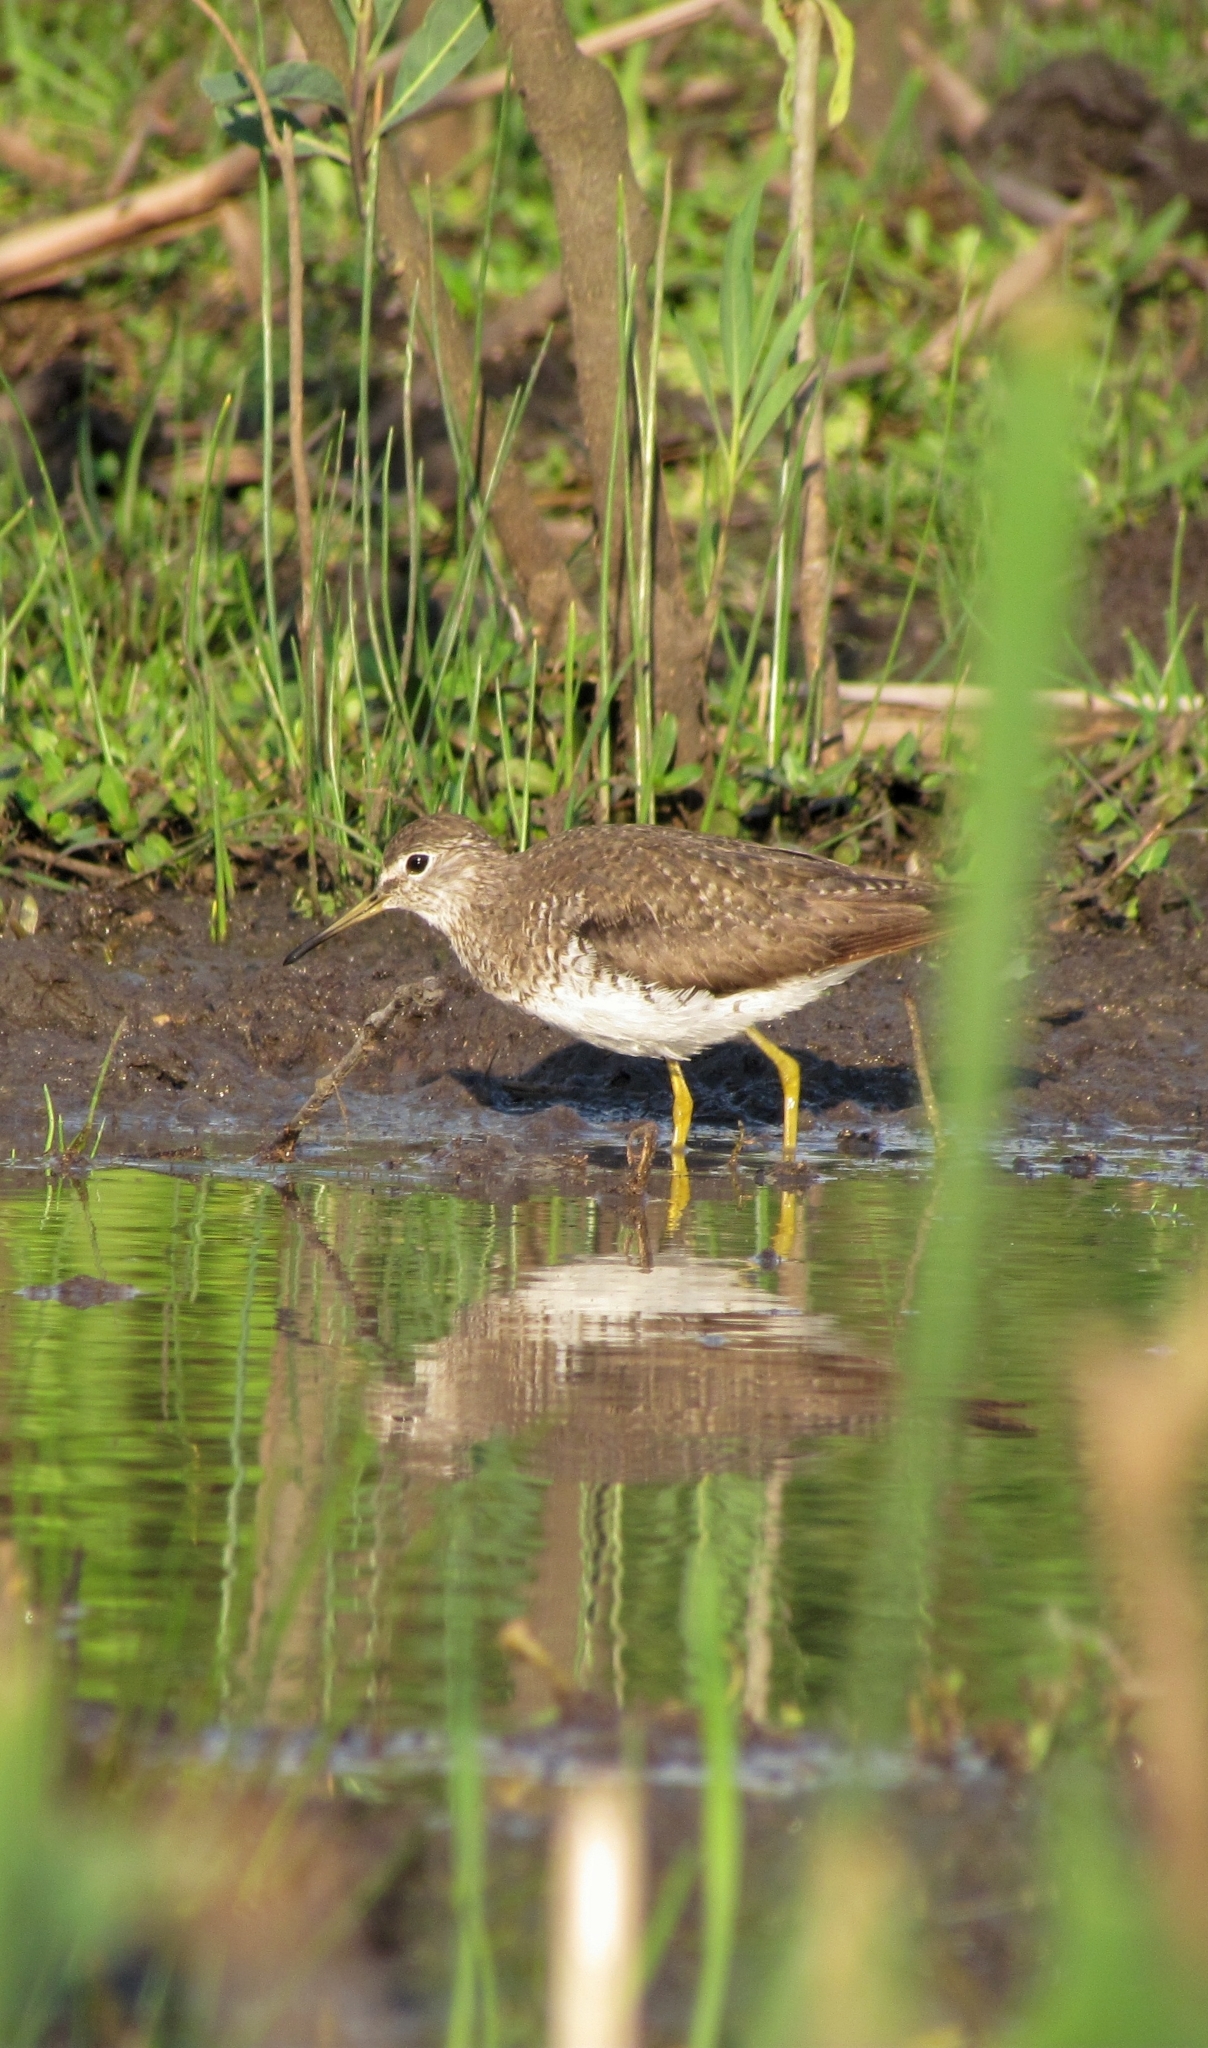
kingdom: Animalia
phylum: Chordata
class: Aves
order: Charadriiformes
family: Scolopacidae
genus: Tringa
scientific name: Tringa solitaria
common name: Solitary sandpiper
